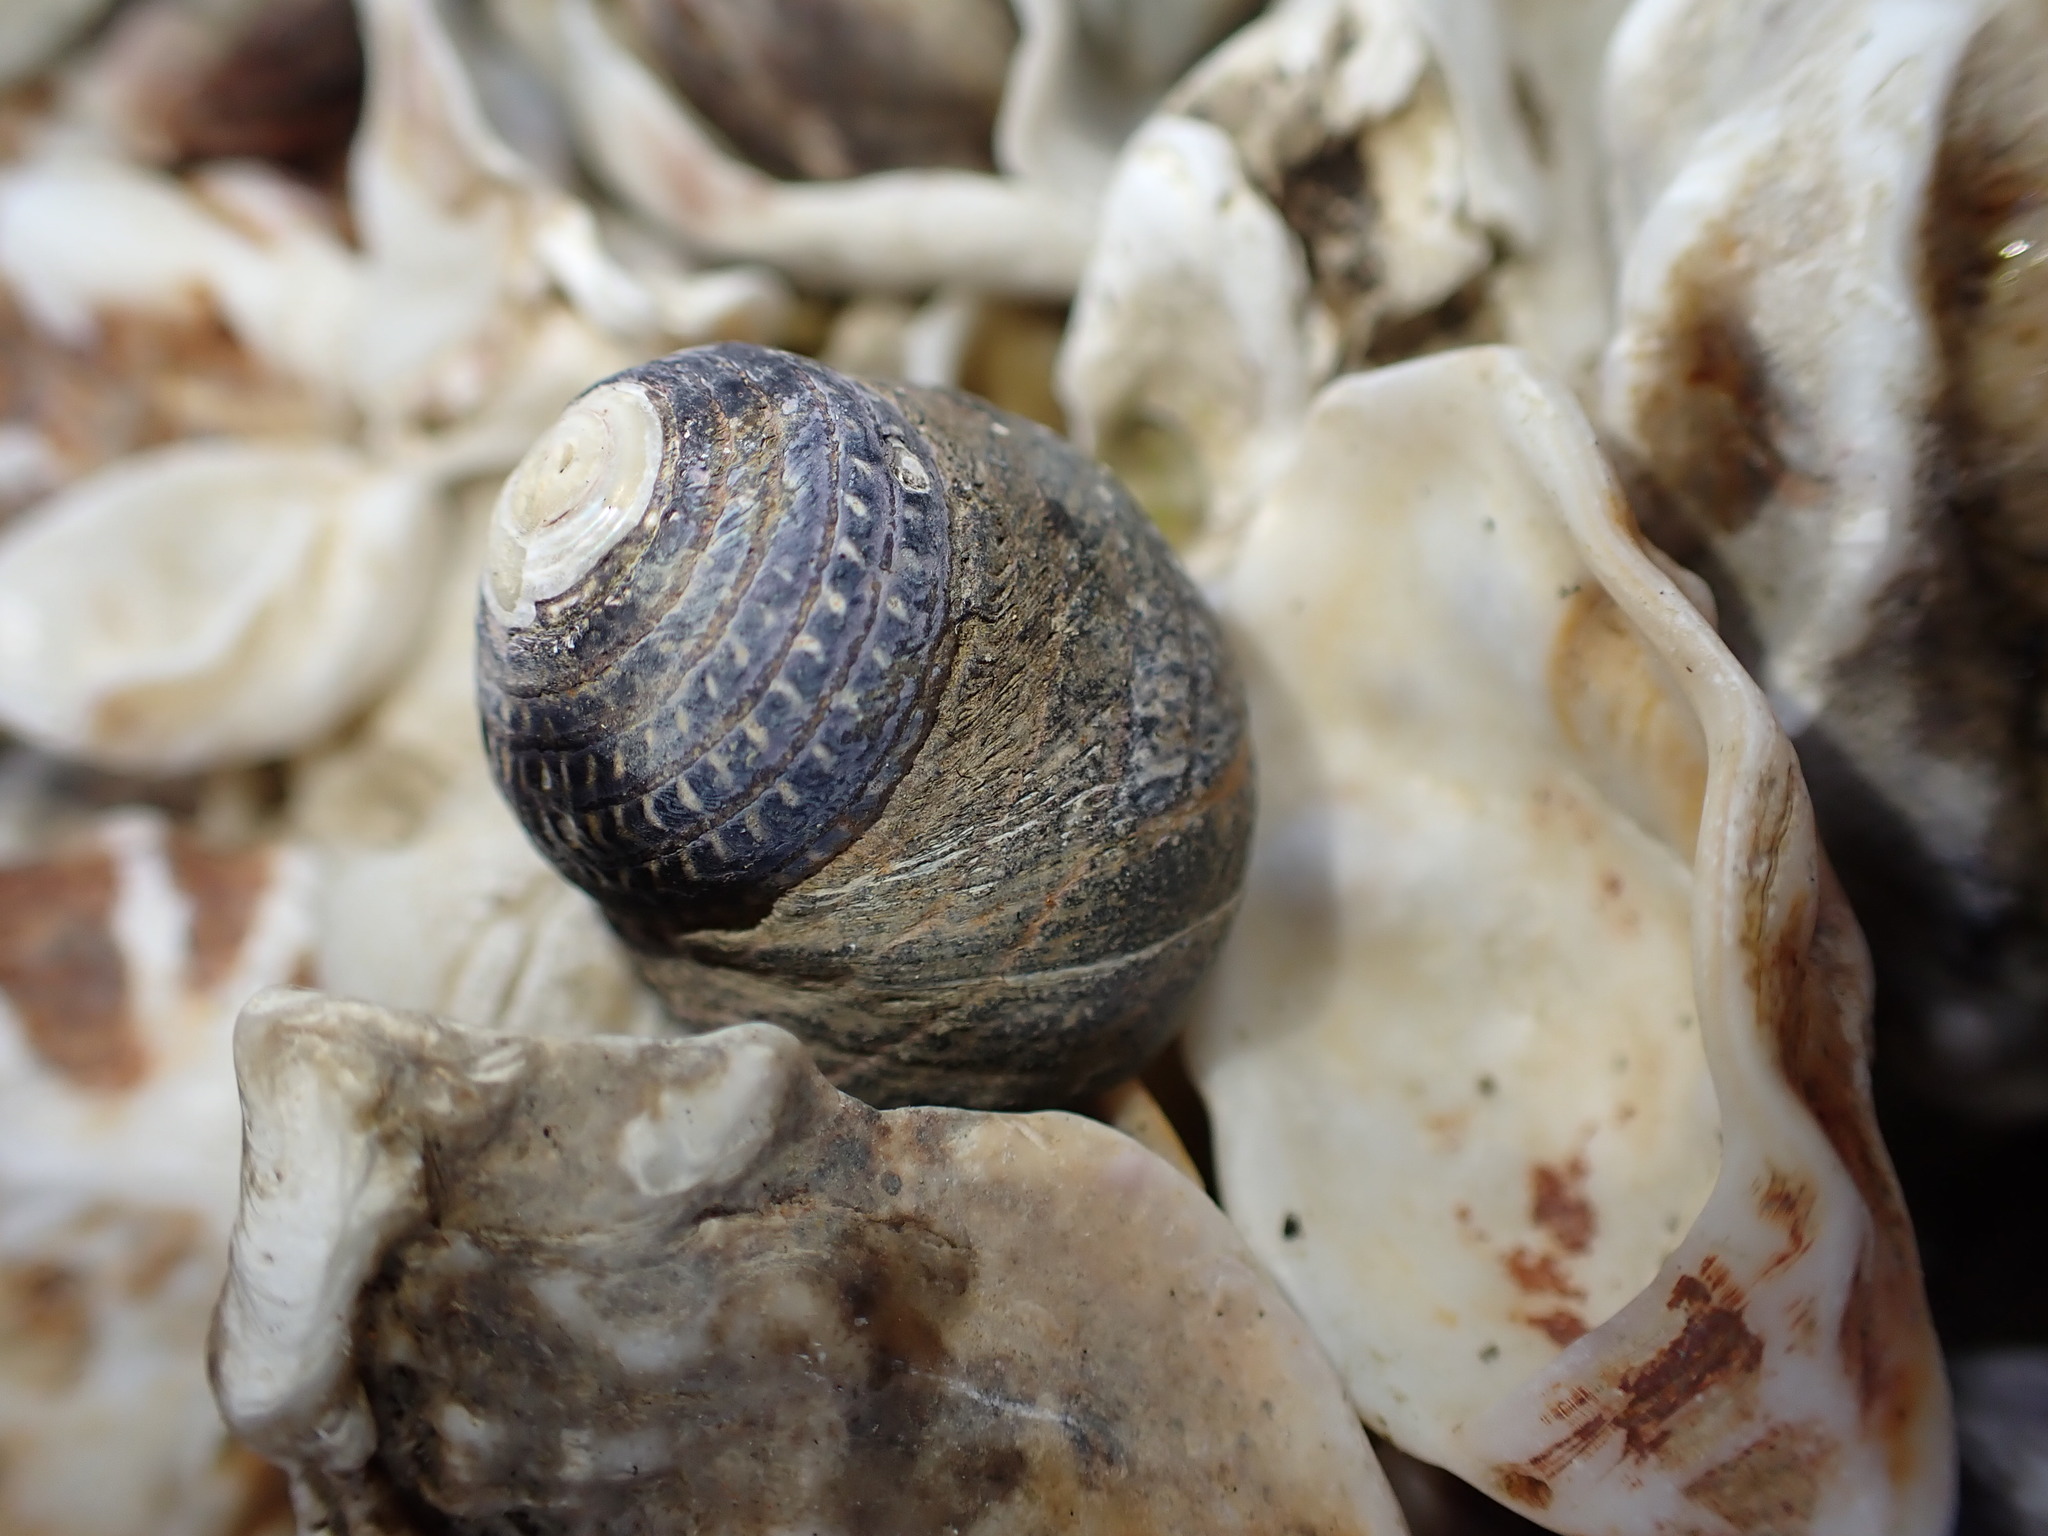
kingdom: Animalia
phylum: Mollusca
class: Gastropoda
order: Trochida
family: Trochidae
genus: Diloma
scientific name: Diloma aethiops
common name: Scorched monodont
